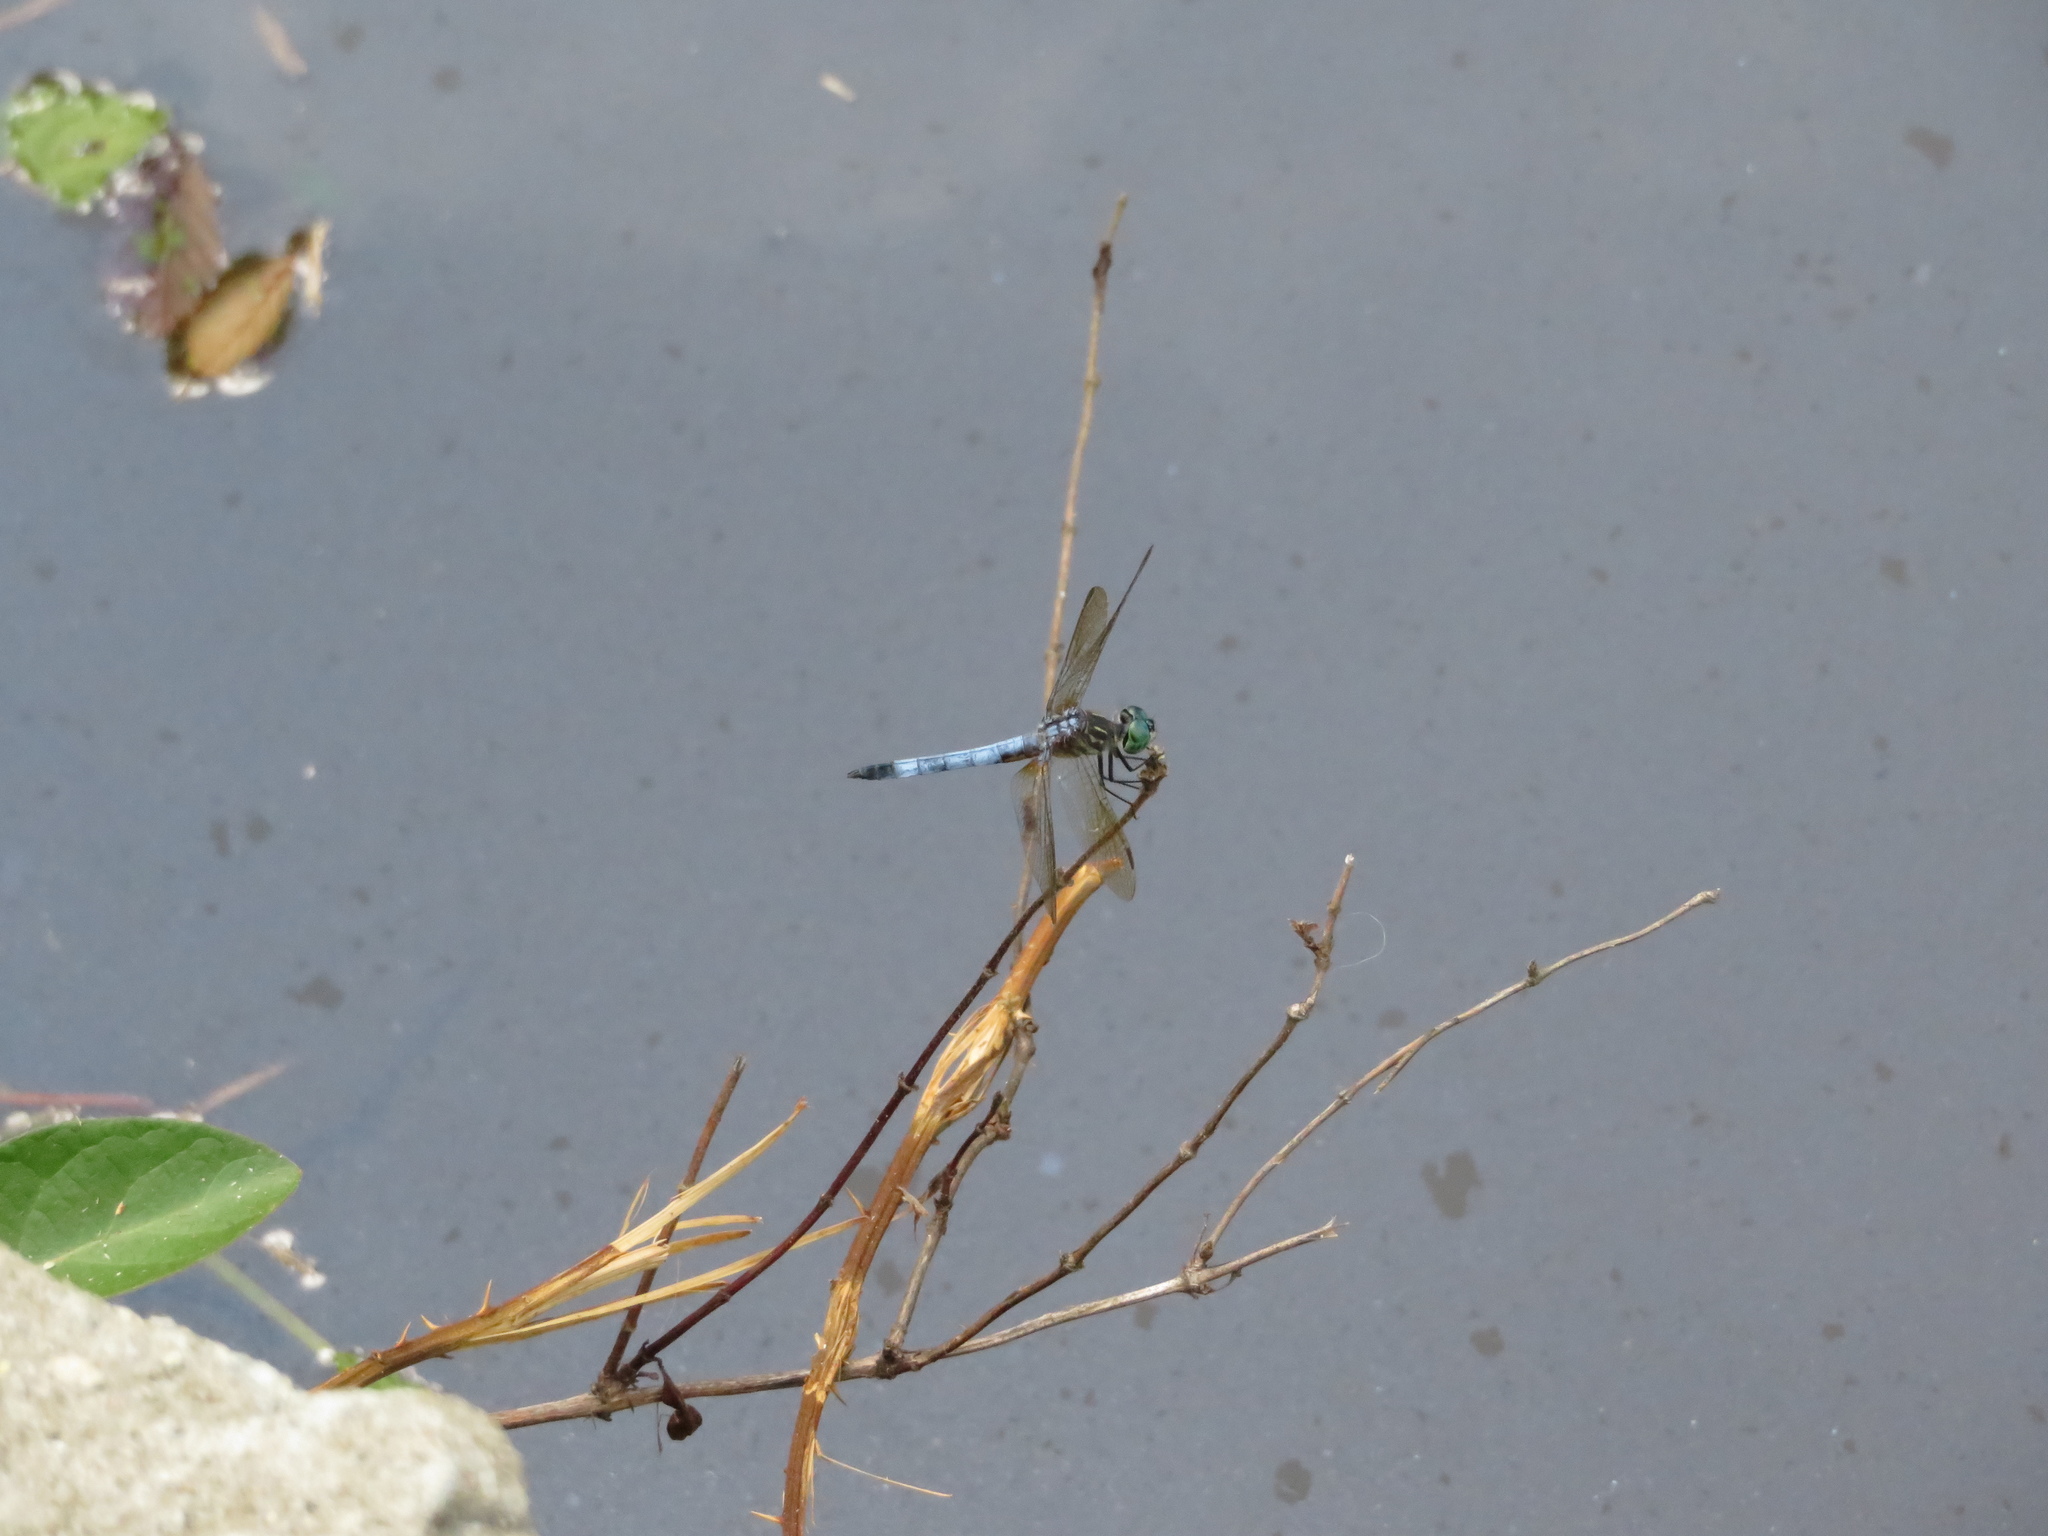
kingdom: Animalia
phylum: Arthropoda
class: Insecta
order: Odonata
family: Libellulidae
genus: Pachydiplax
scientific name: Pachydiplax longipennis
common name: Blue dasher
